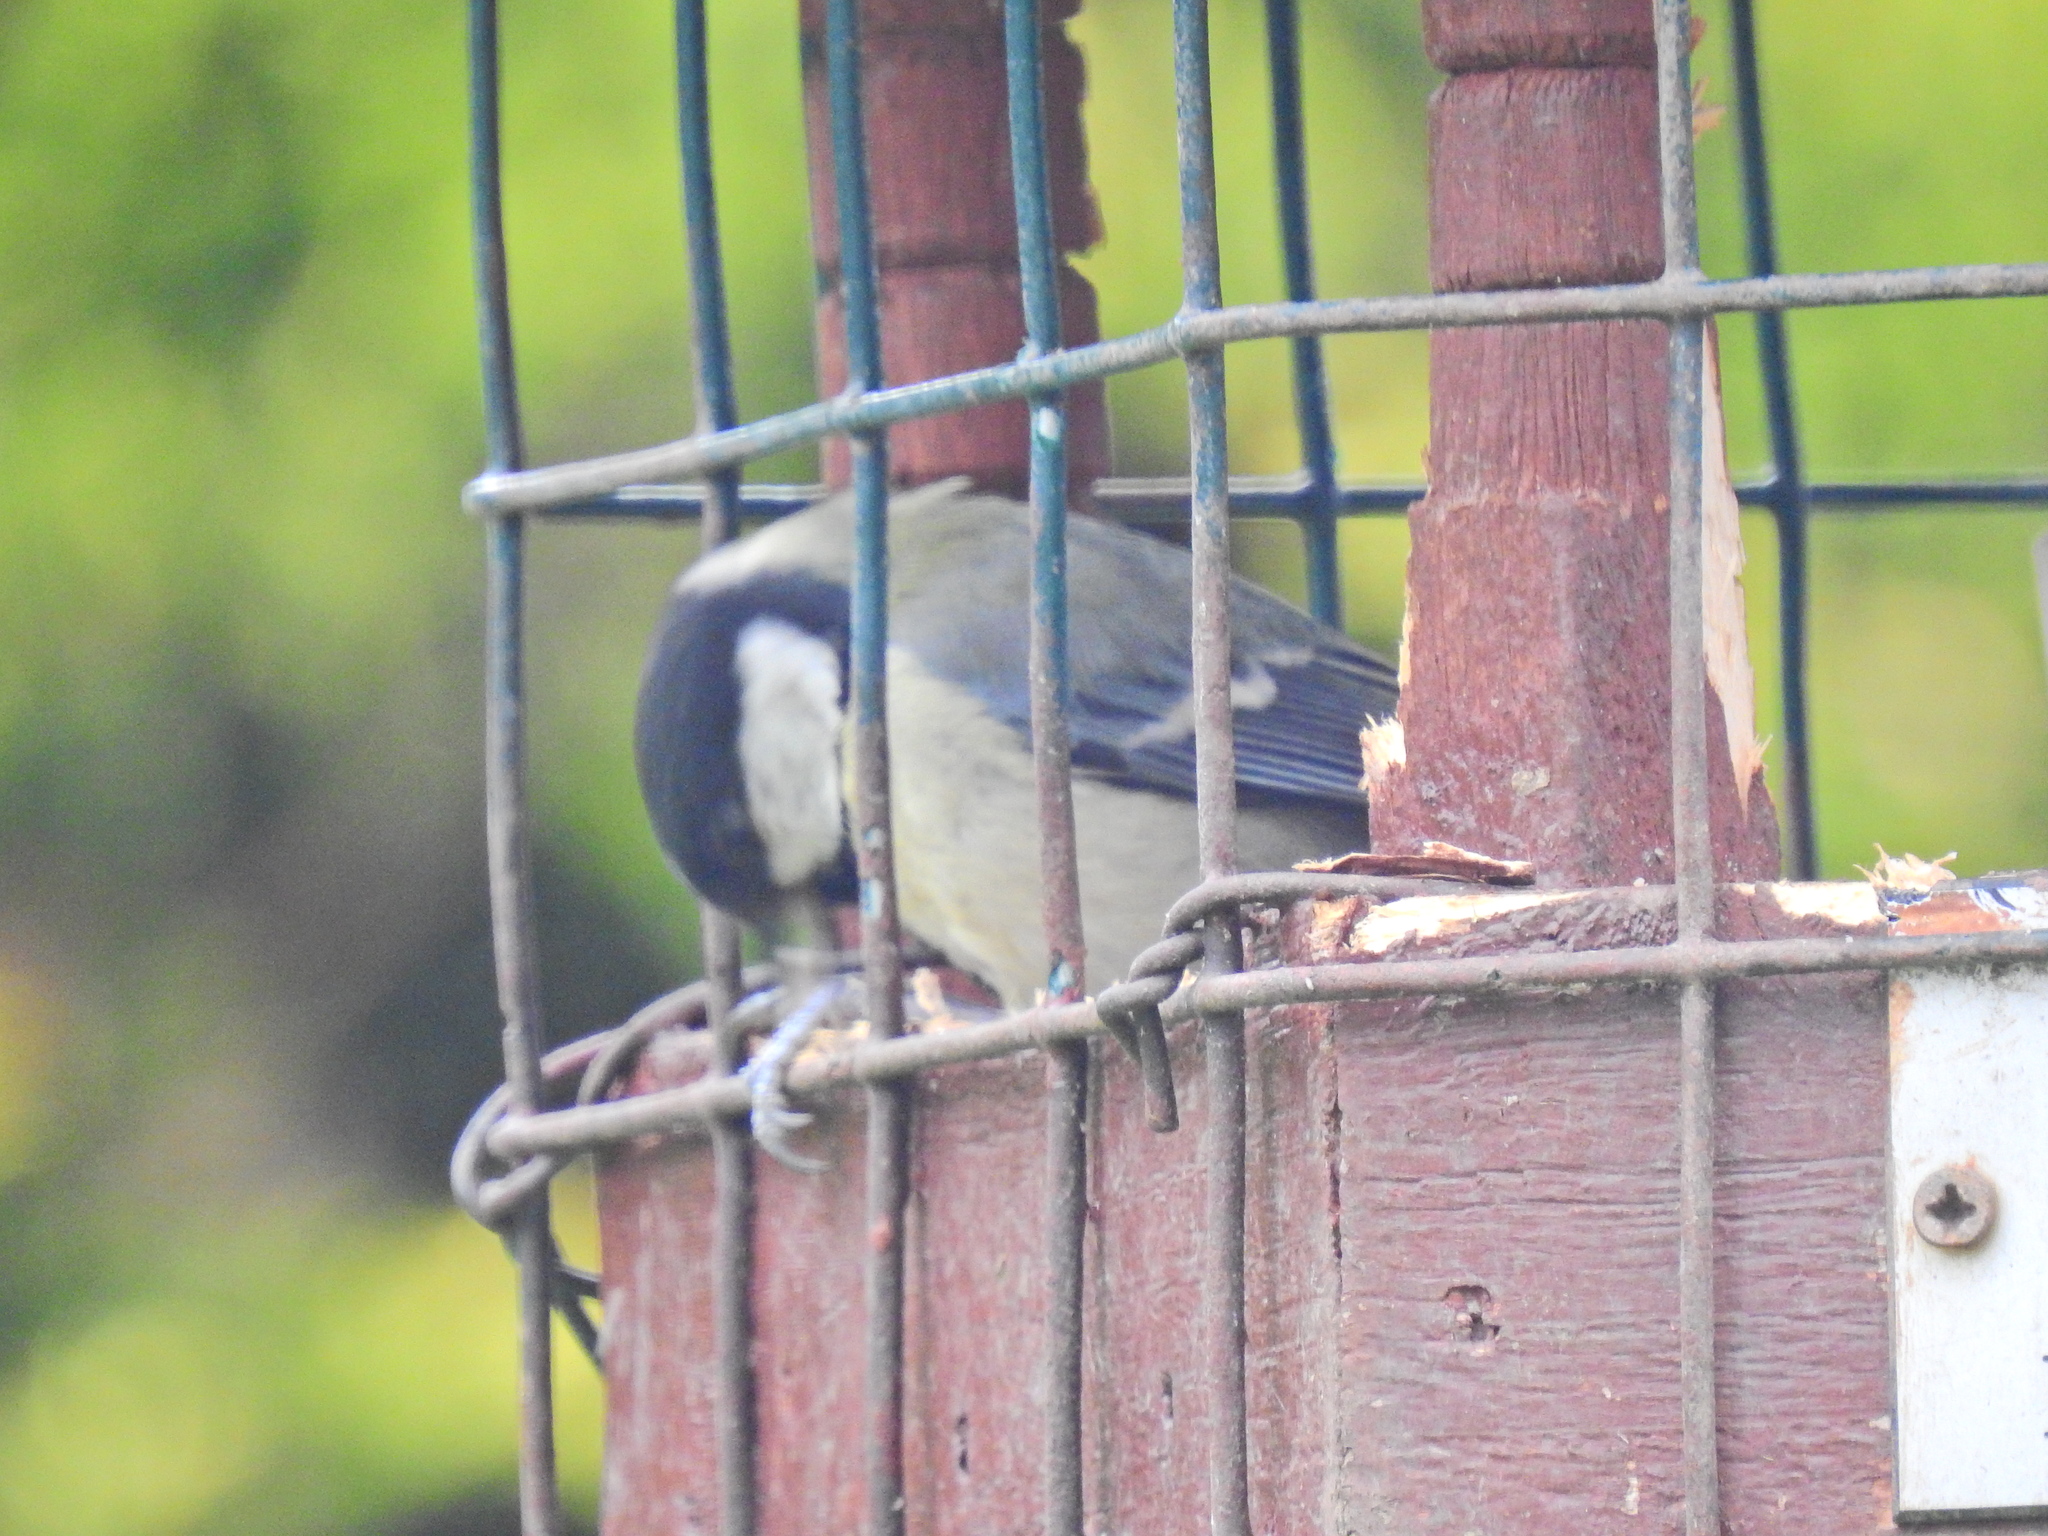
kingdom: Animalia
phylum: Chordata
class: Aves
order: Passeriformes
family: Paridae
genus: Parus
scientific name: Parus major
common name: Great tit
